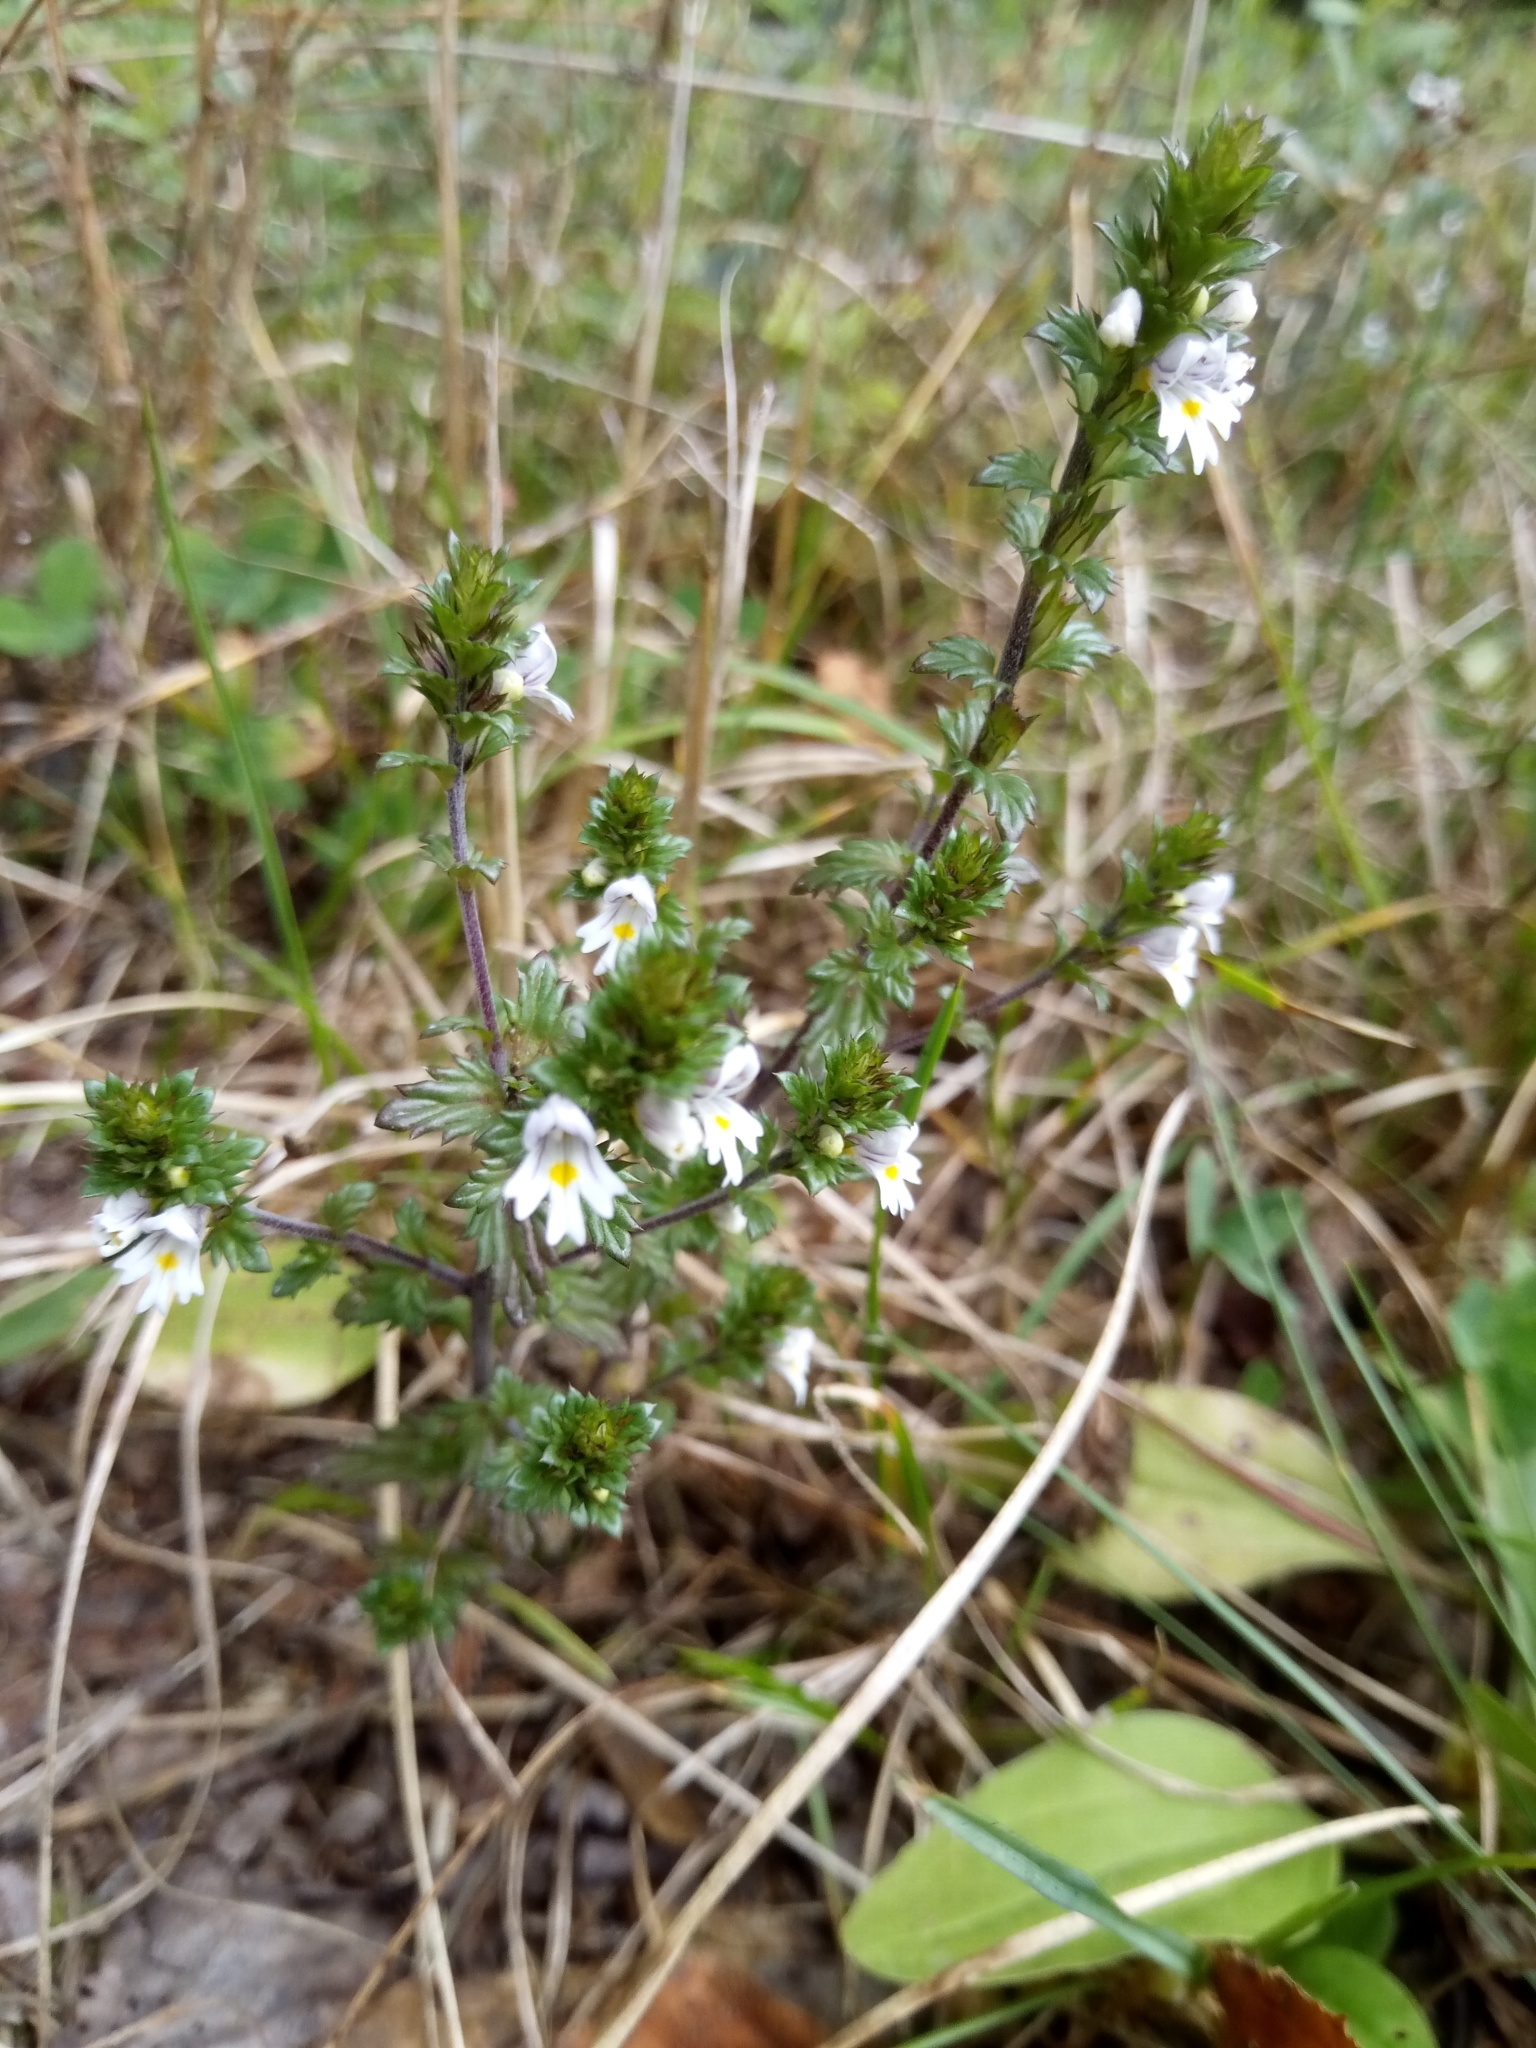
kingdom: Plantae
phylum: Tracheophyta
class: Magnoliopsida
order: Lamiales
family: Orobanchaceae
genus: Euphrasia
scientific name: Euphrasia nemorosa
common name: Common eyebright
